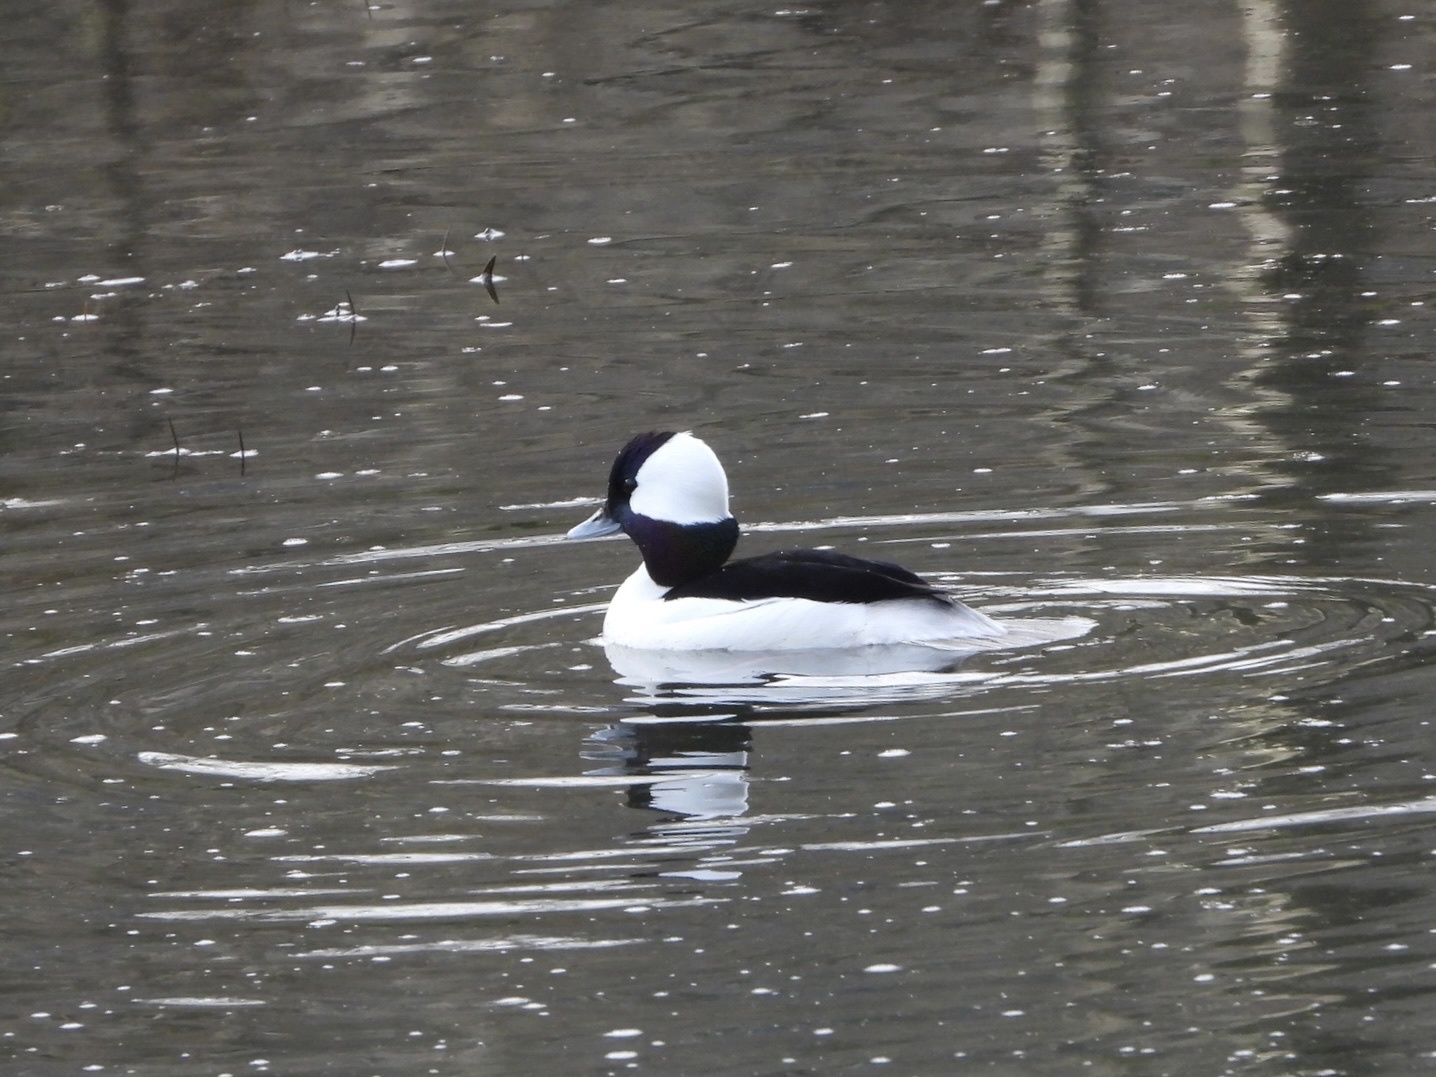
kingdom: Animalia
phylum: Chordata
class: Aves
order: Anseriformes
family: Anatidae
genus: Bucephala
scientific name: Bucephala albeola
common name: Bufflehead
